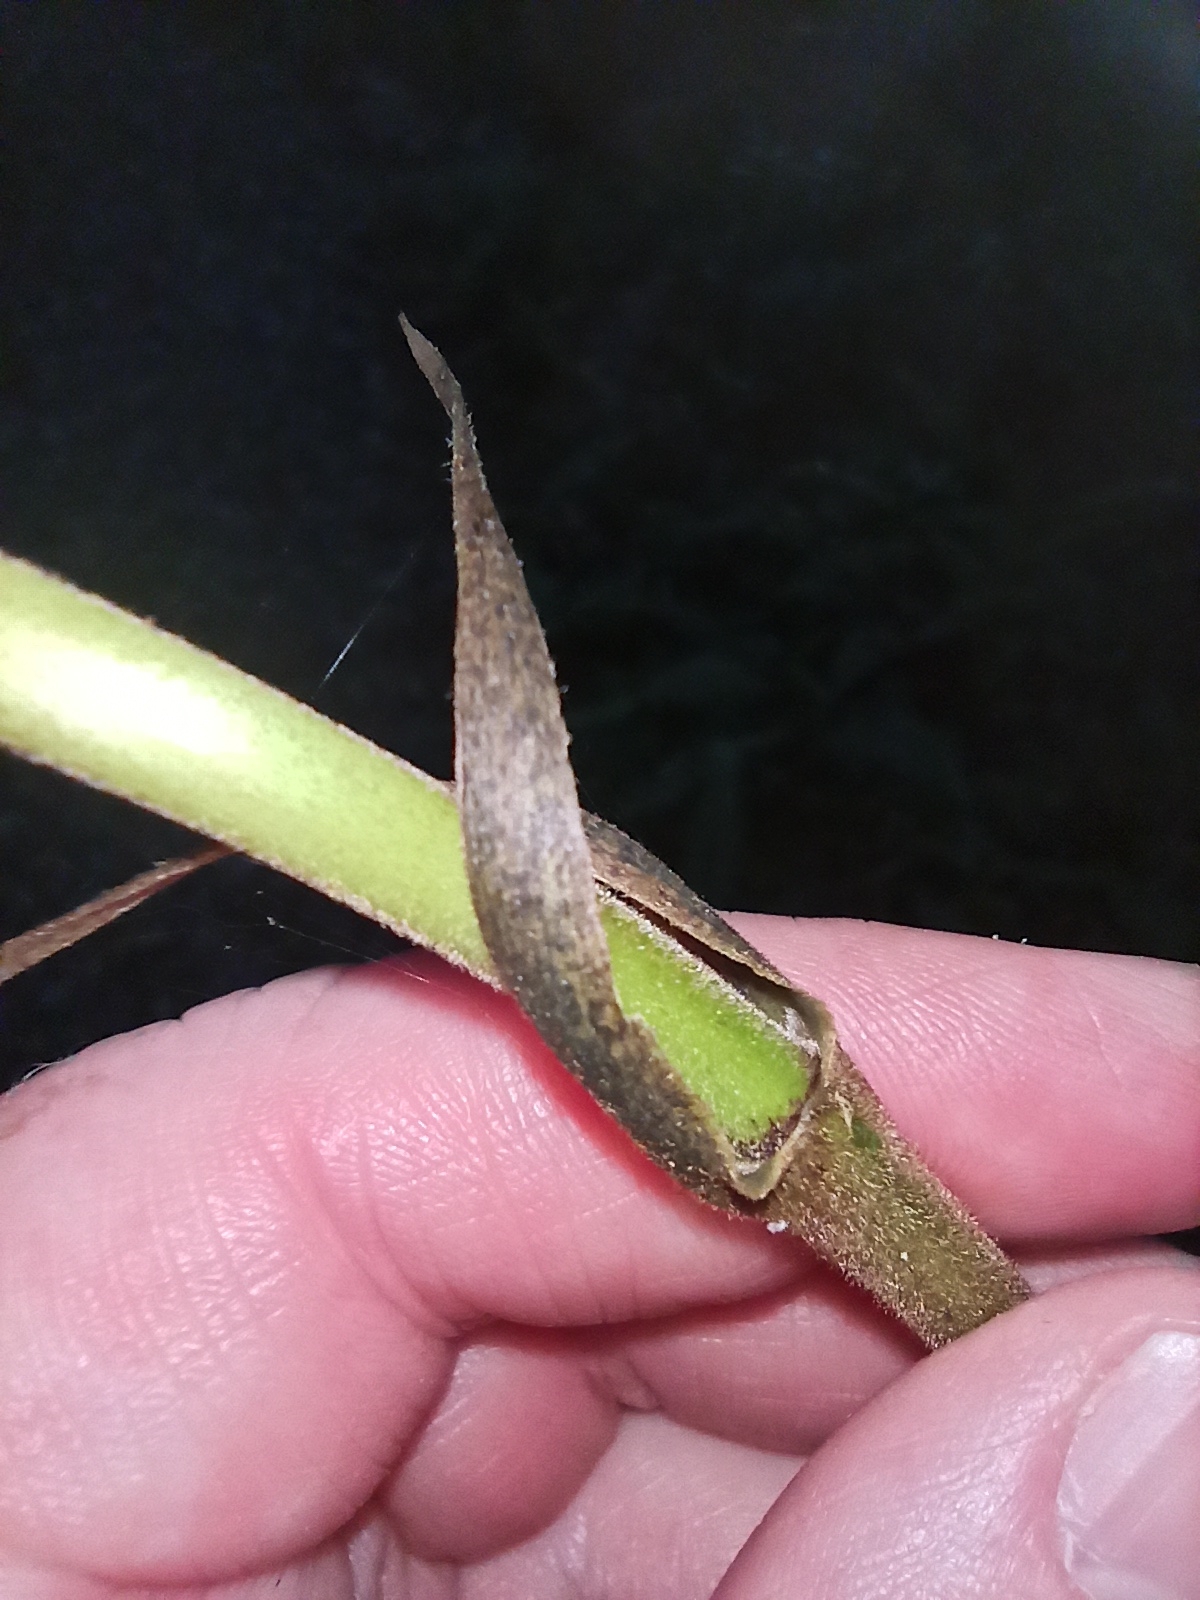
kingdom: Plantae
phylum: Tracheophyta
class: Liliopsida
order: Liliales
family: Ripogonaceae
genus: Ripogonum
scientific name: Ripogonum scandens
